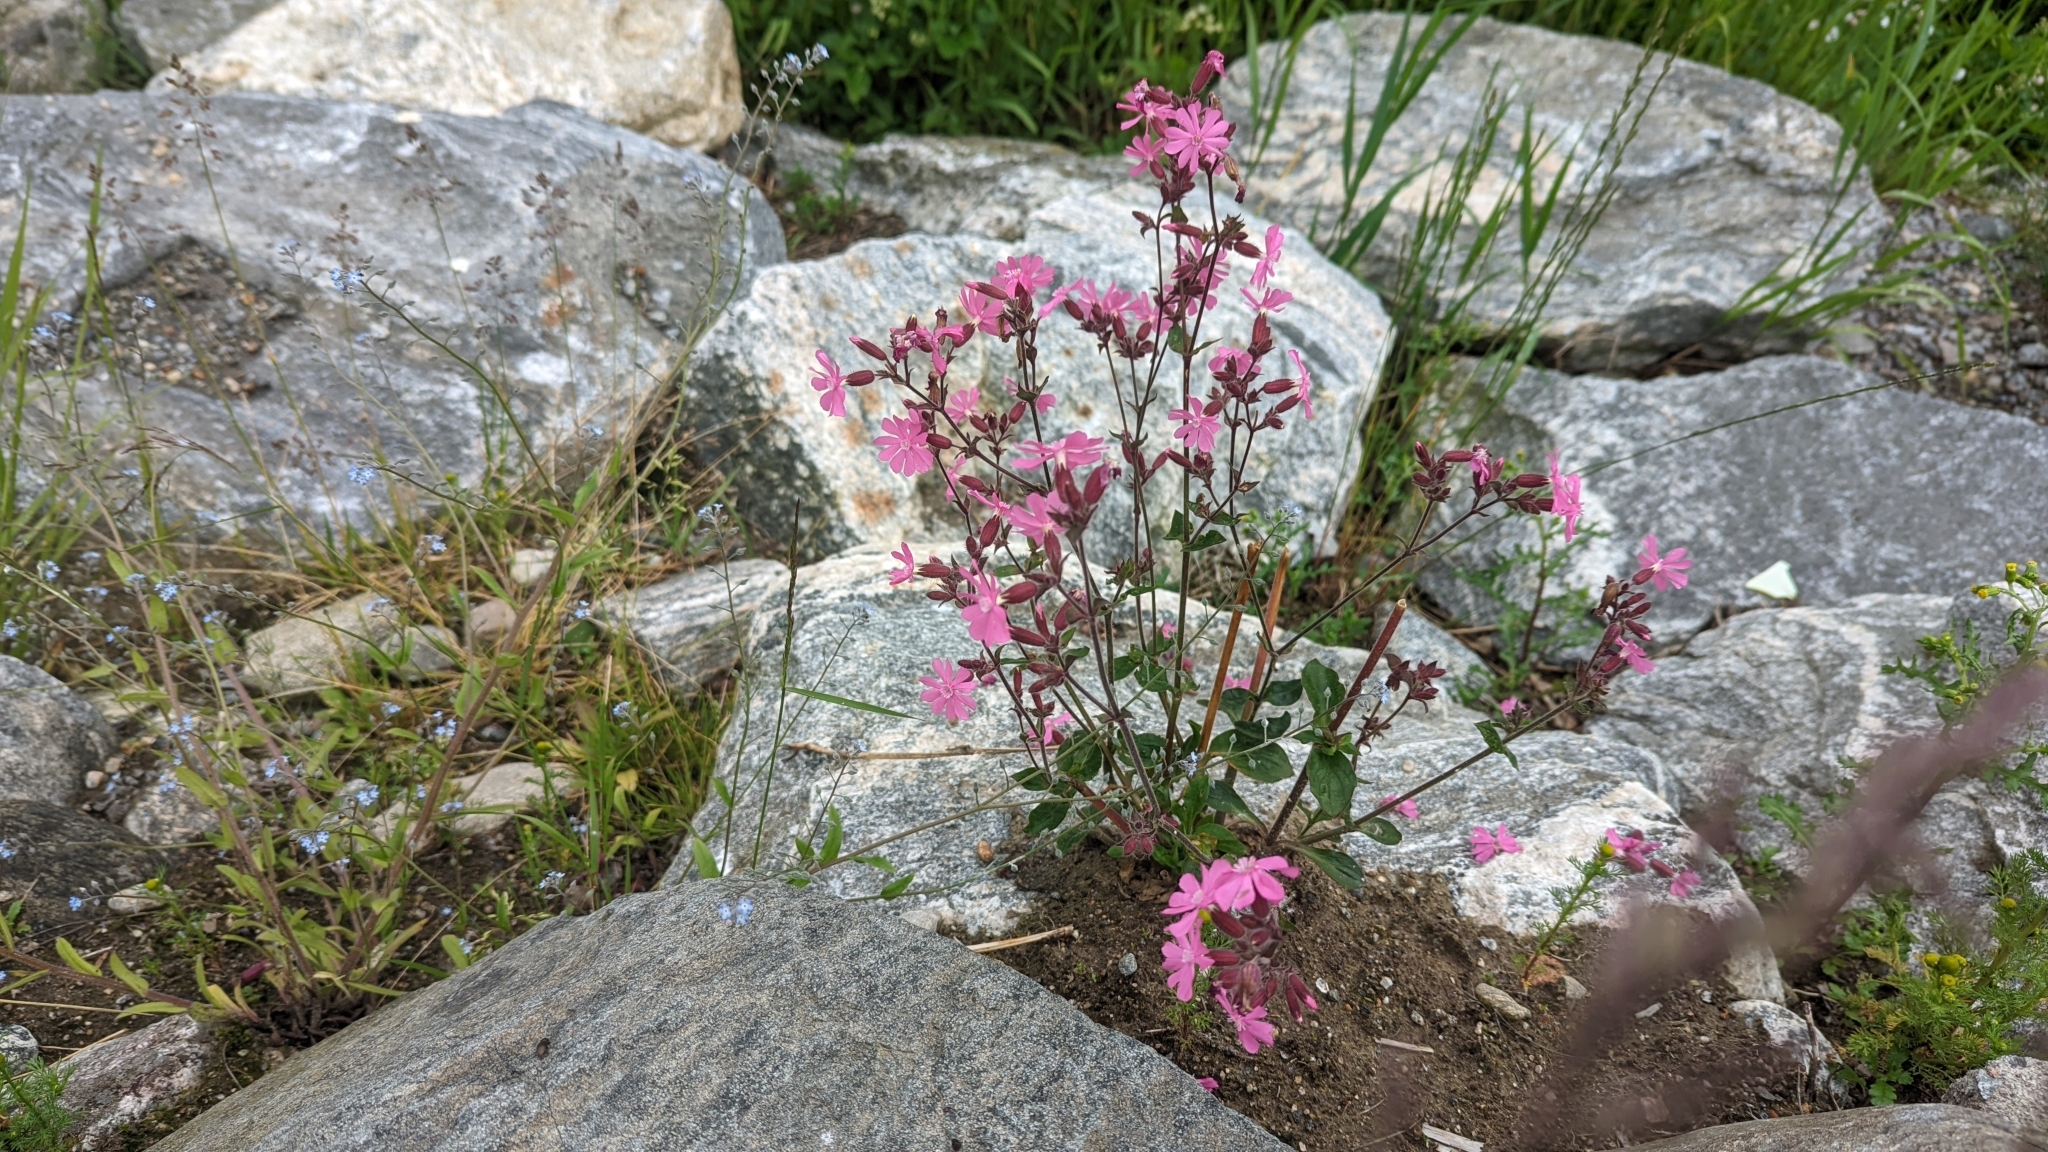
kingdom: Plantae
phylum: Tracheophyta
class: Magnoliopsida
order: Caryophyllales
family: Caryophyllaceae
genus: Silene
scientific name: Silene dioica
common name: Red campion
